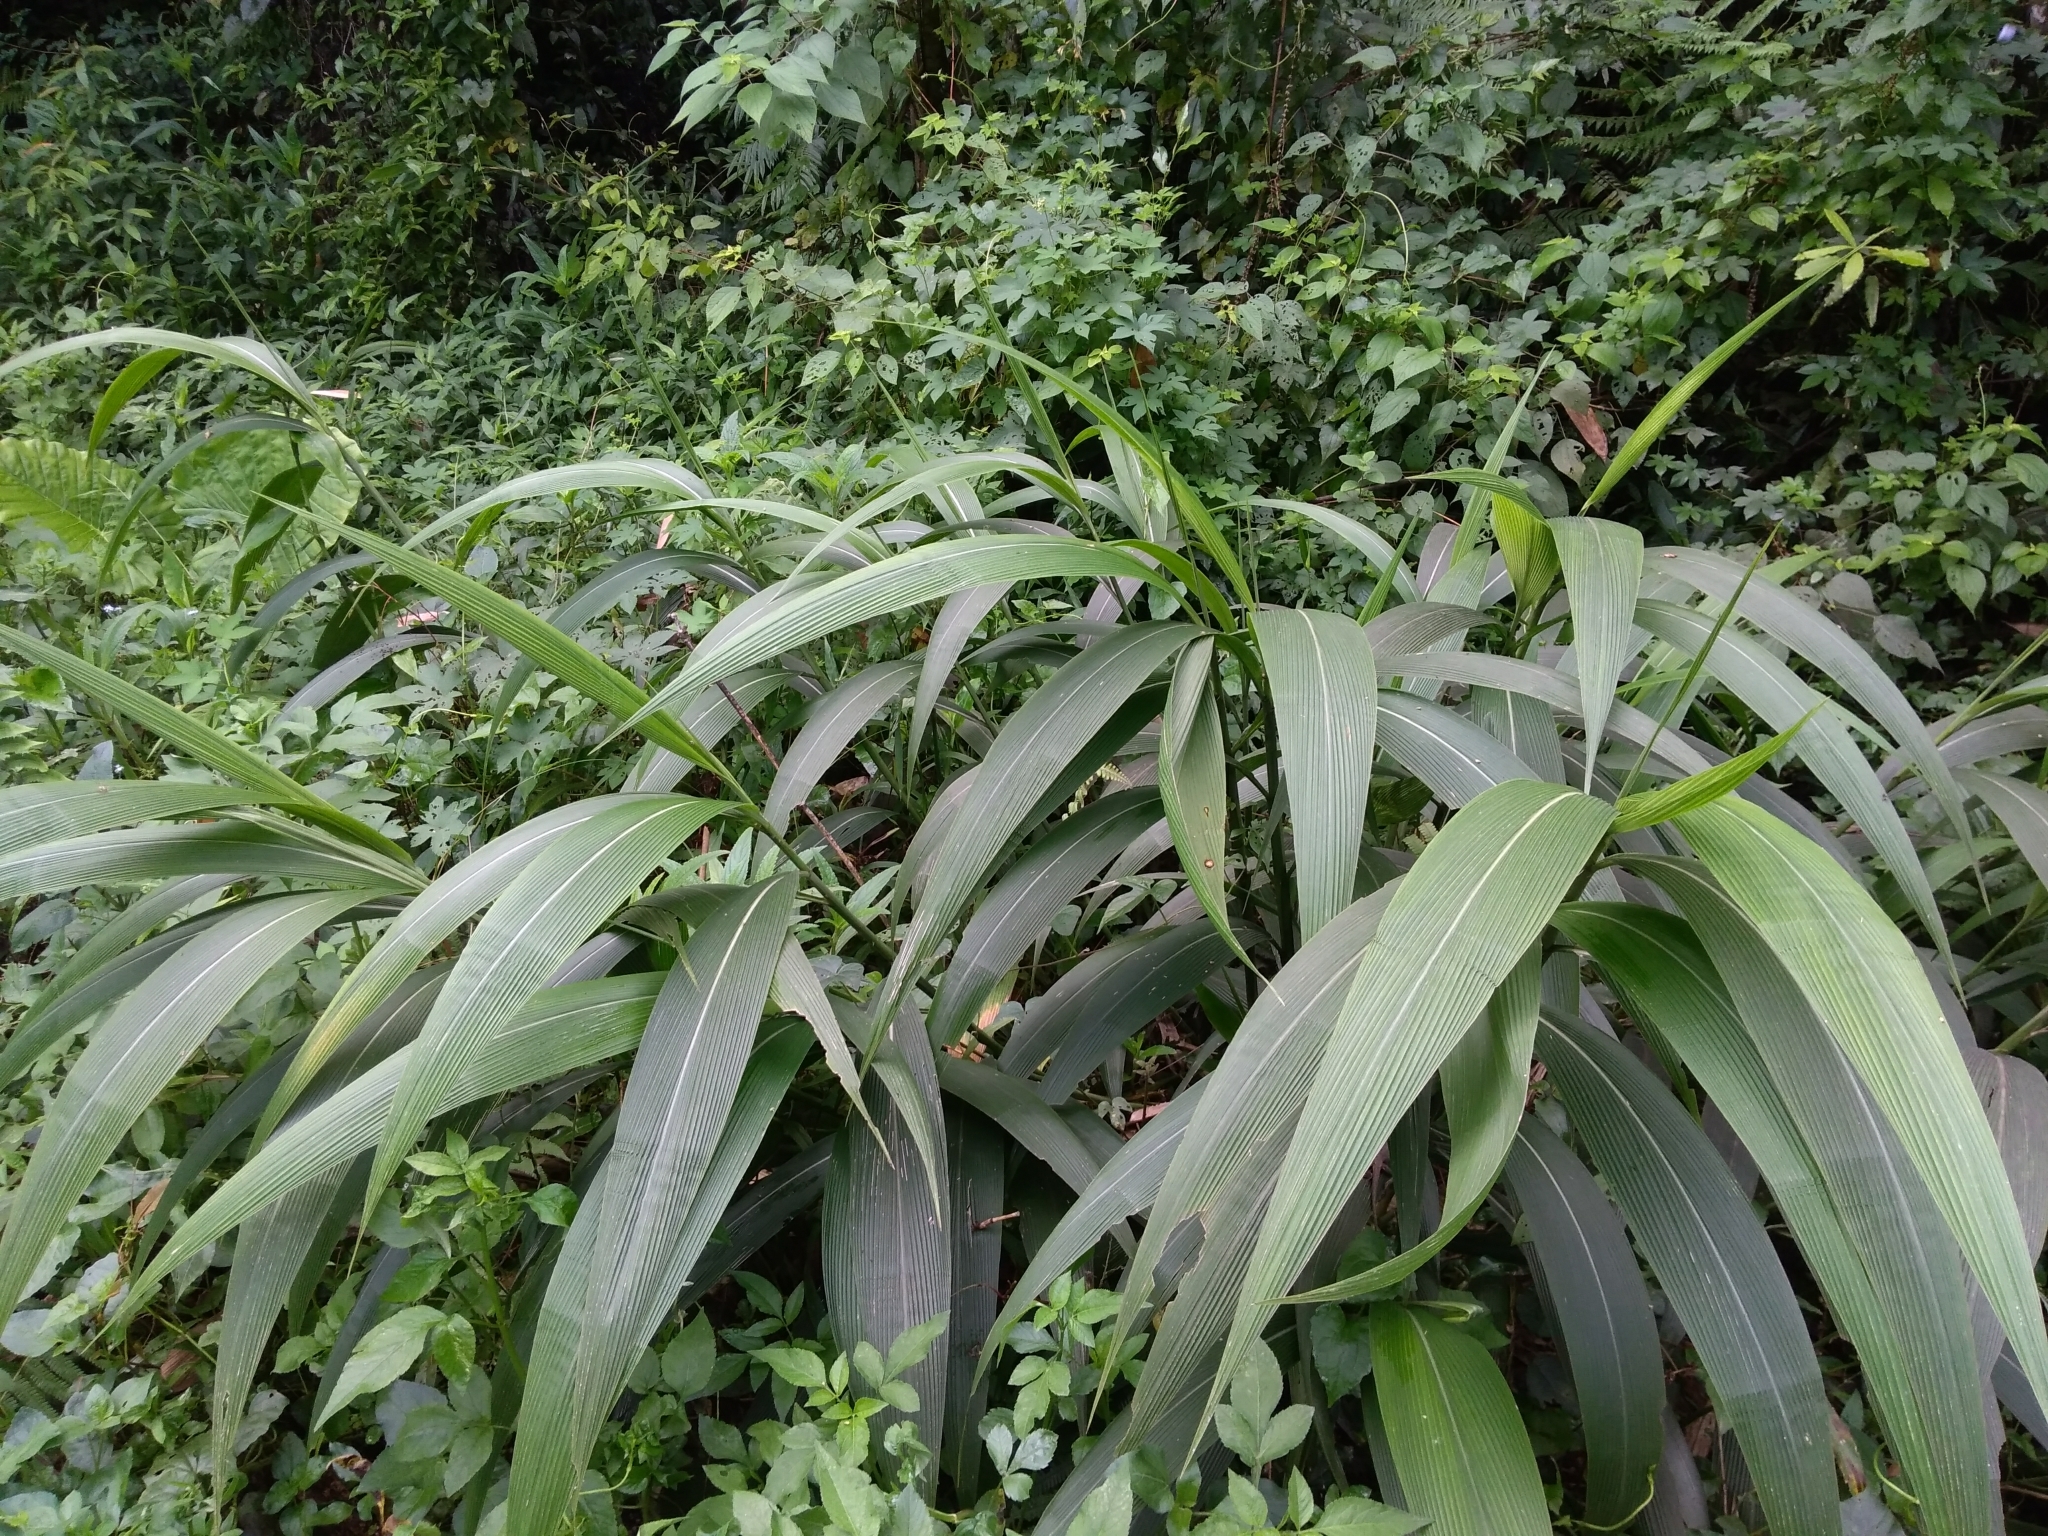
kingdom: Plantae
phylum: Tracheophyta
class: Liliopsida
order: Poales
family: Poaceae
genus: Setaria
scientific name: Setaria palmifolia
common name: Broadleaved bristlegrass
